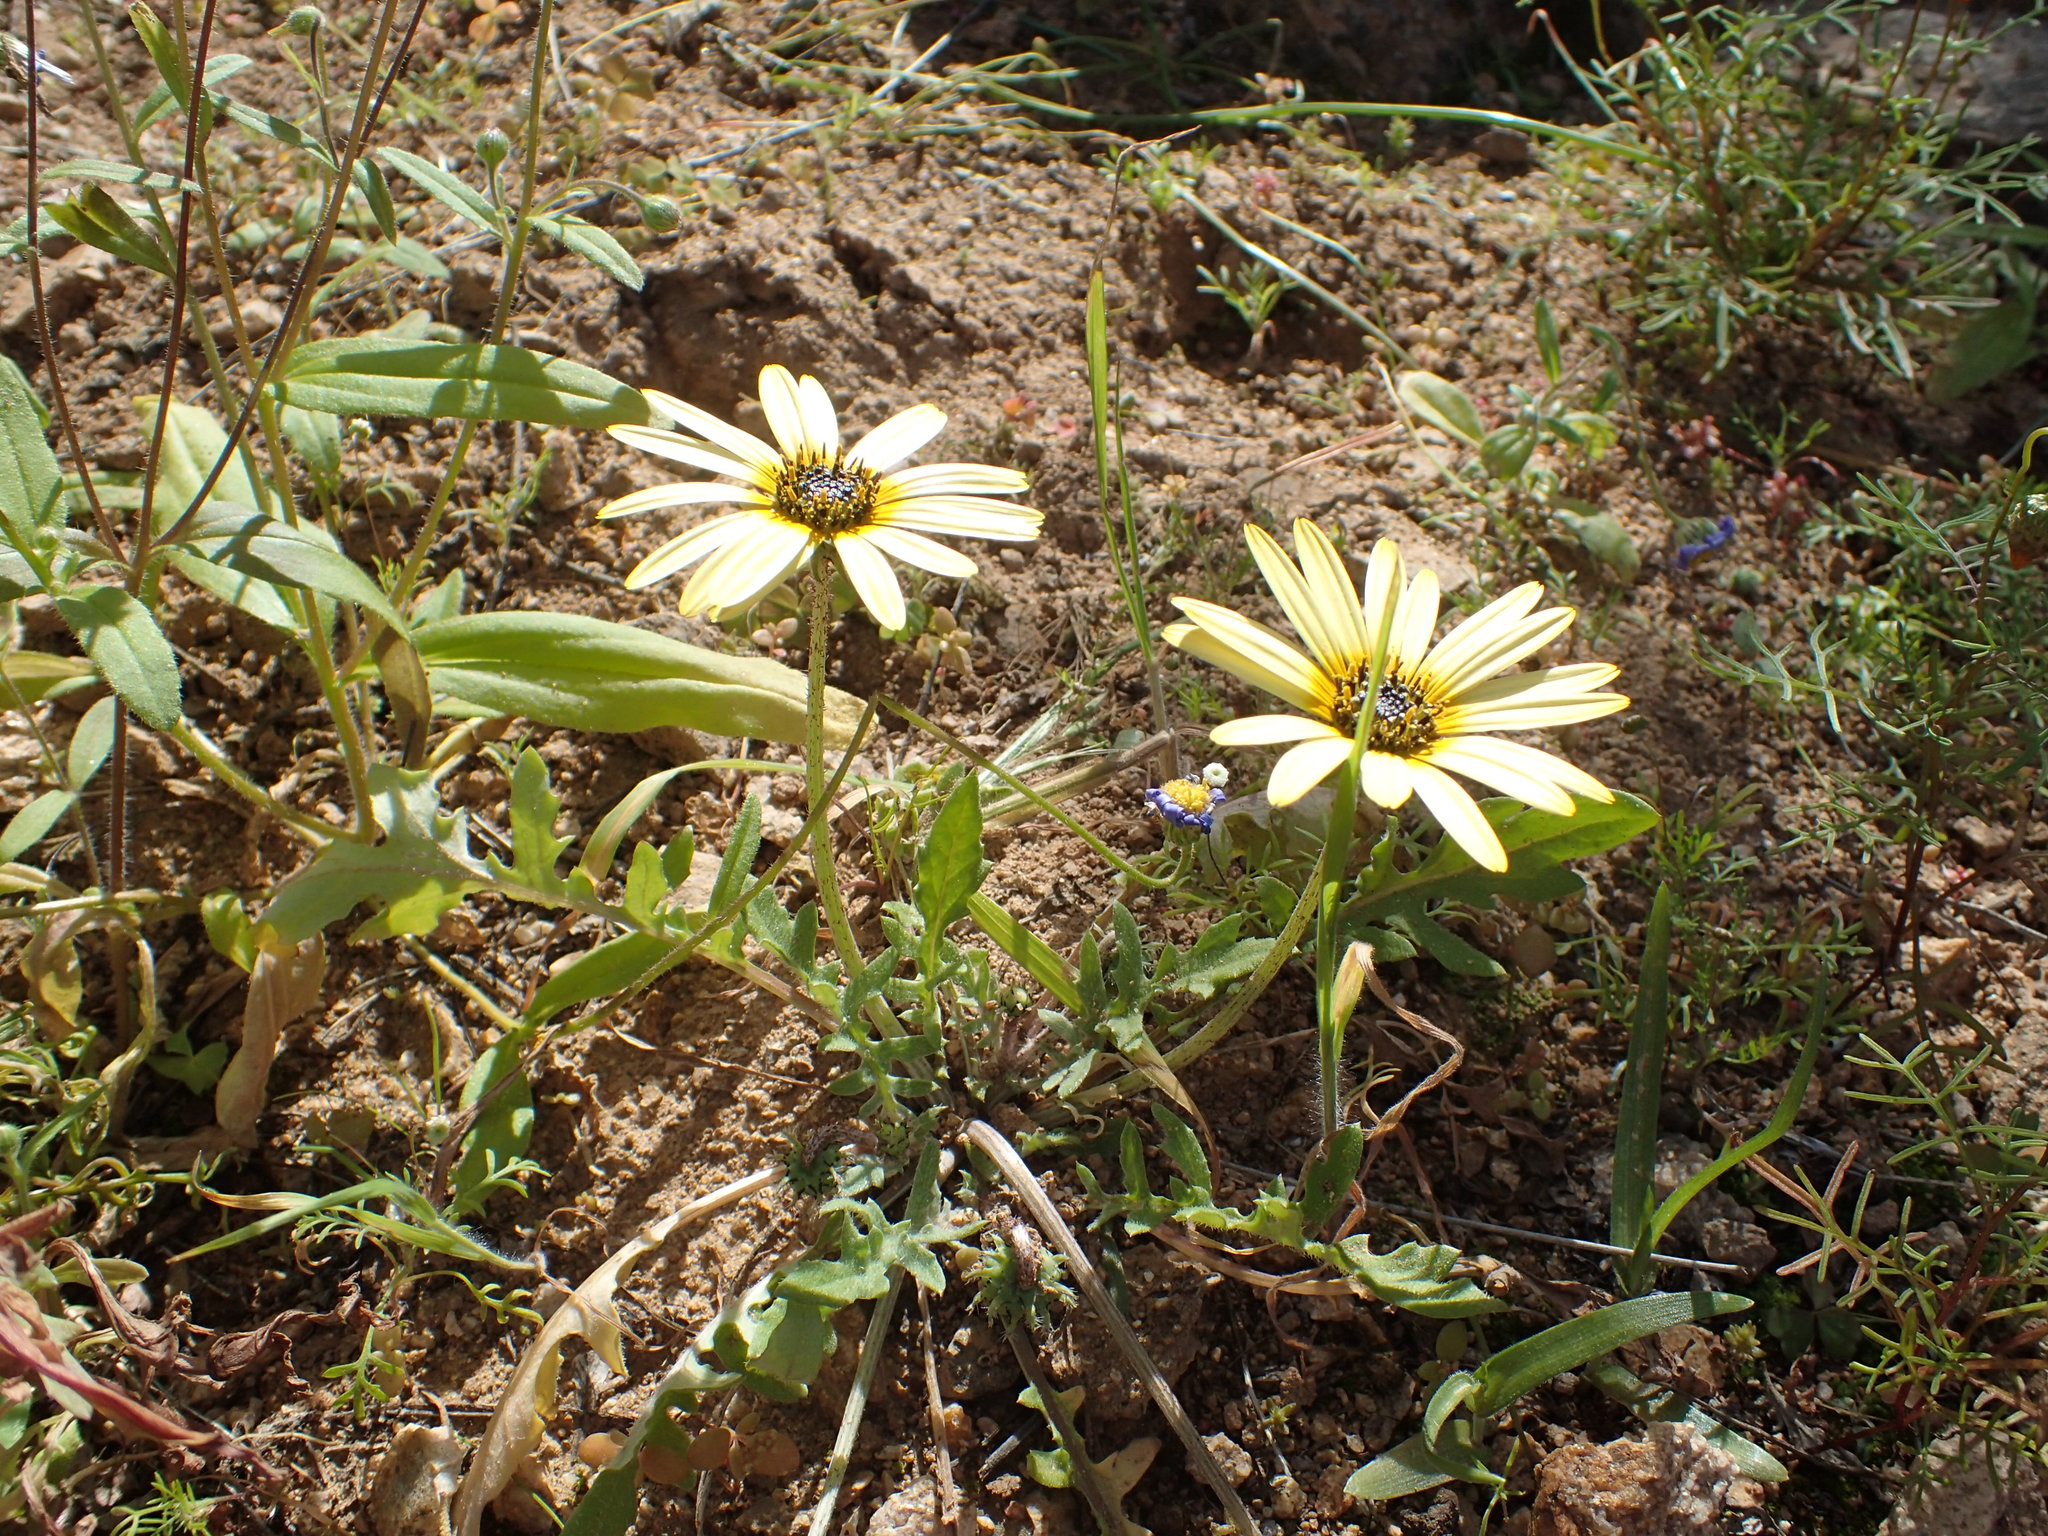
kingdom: Plantae
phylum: Tracheophyta
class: Magnoliopsida
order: Asterales
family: Asteraceae
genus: Arctotheca
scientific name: Arctotheca calendula
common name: Capeweed
